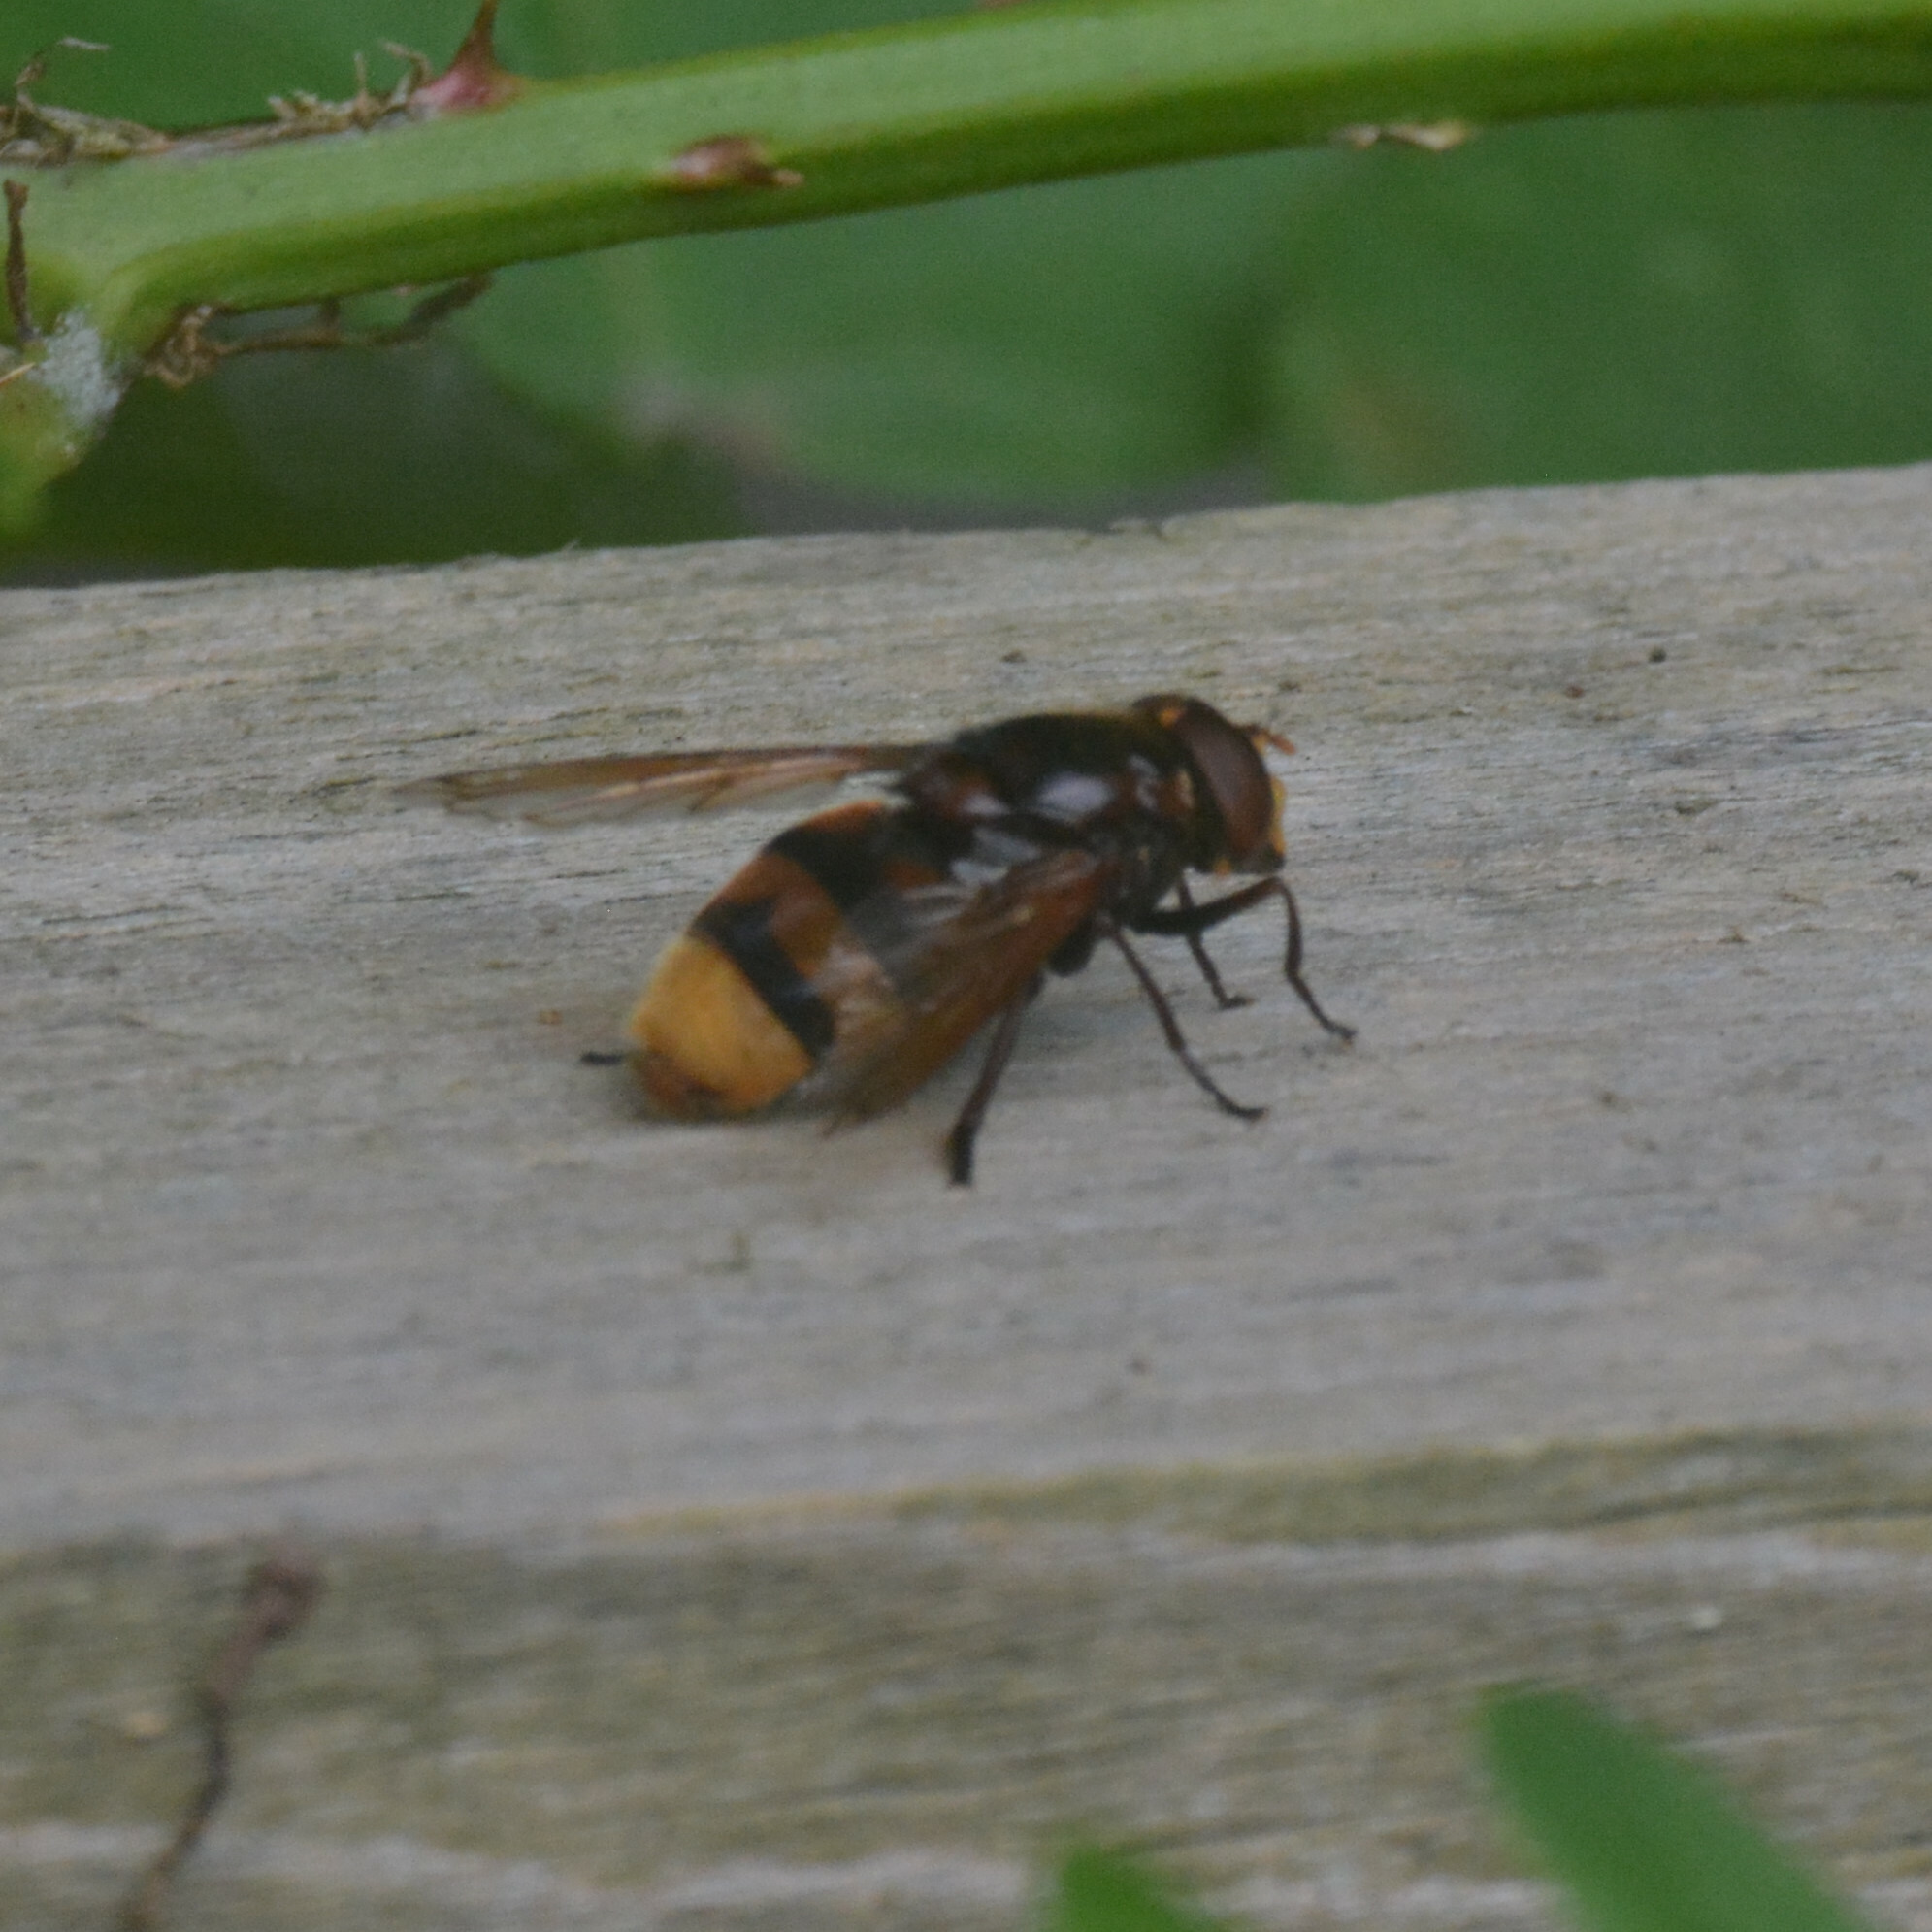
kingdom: Animalia
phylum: Arthropoda
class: Insecta
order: Diptera
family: Syrphidae
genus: Volucella
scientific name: Volucella zonaria
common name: Hornet hoverfly
